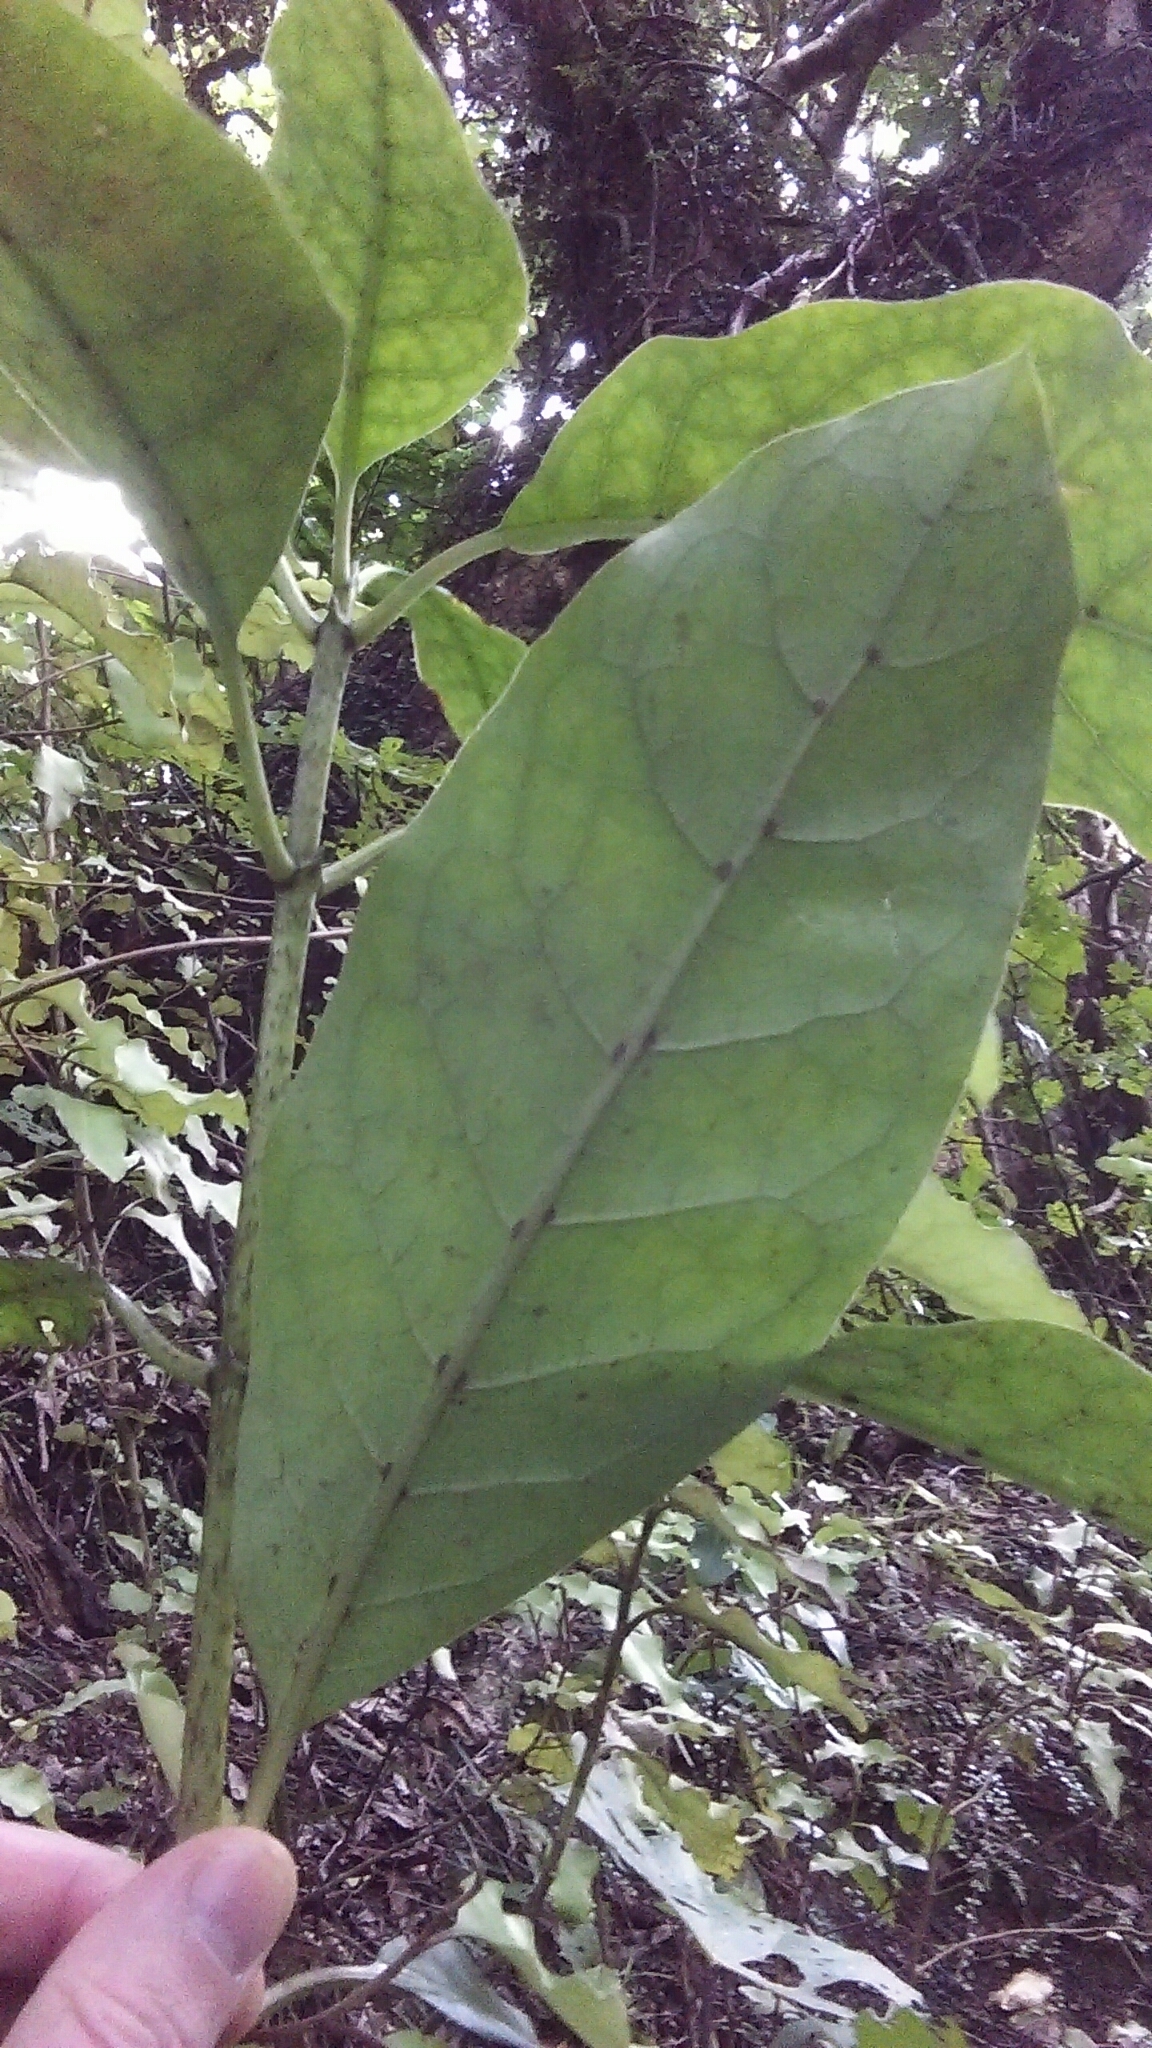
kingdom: Plantae
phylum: Tracheophyta
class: Magnoliopsida
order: Gentianales
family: Rubiaceae
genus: Coprosma
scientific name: Coprosma autumnalis
